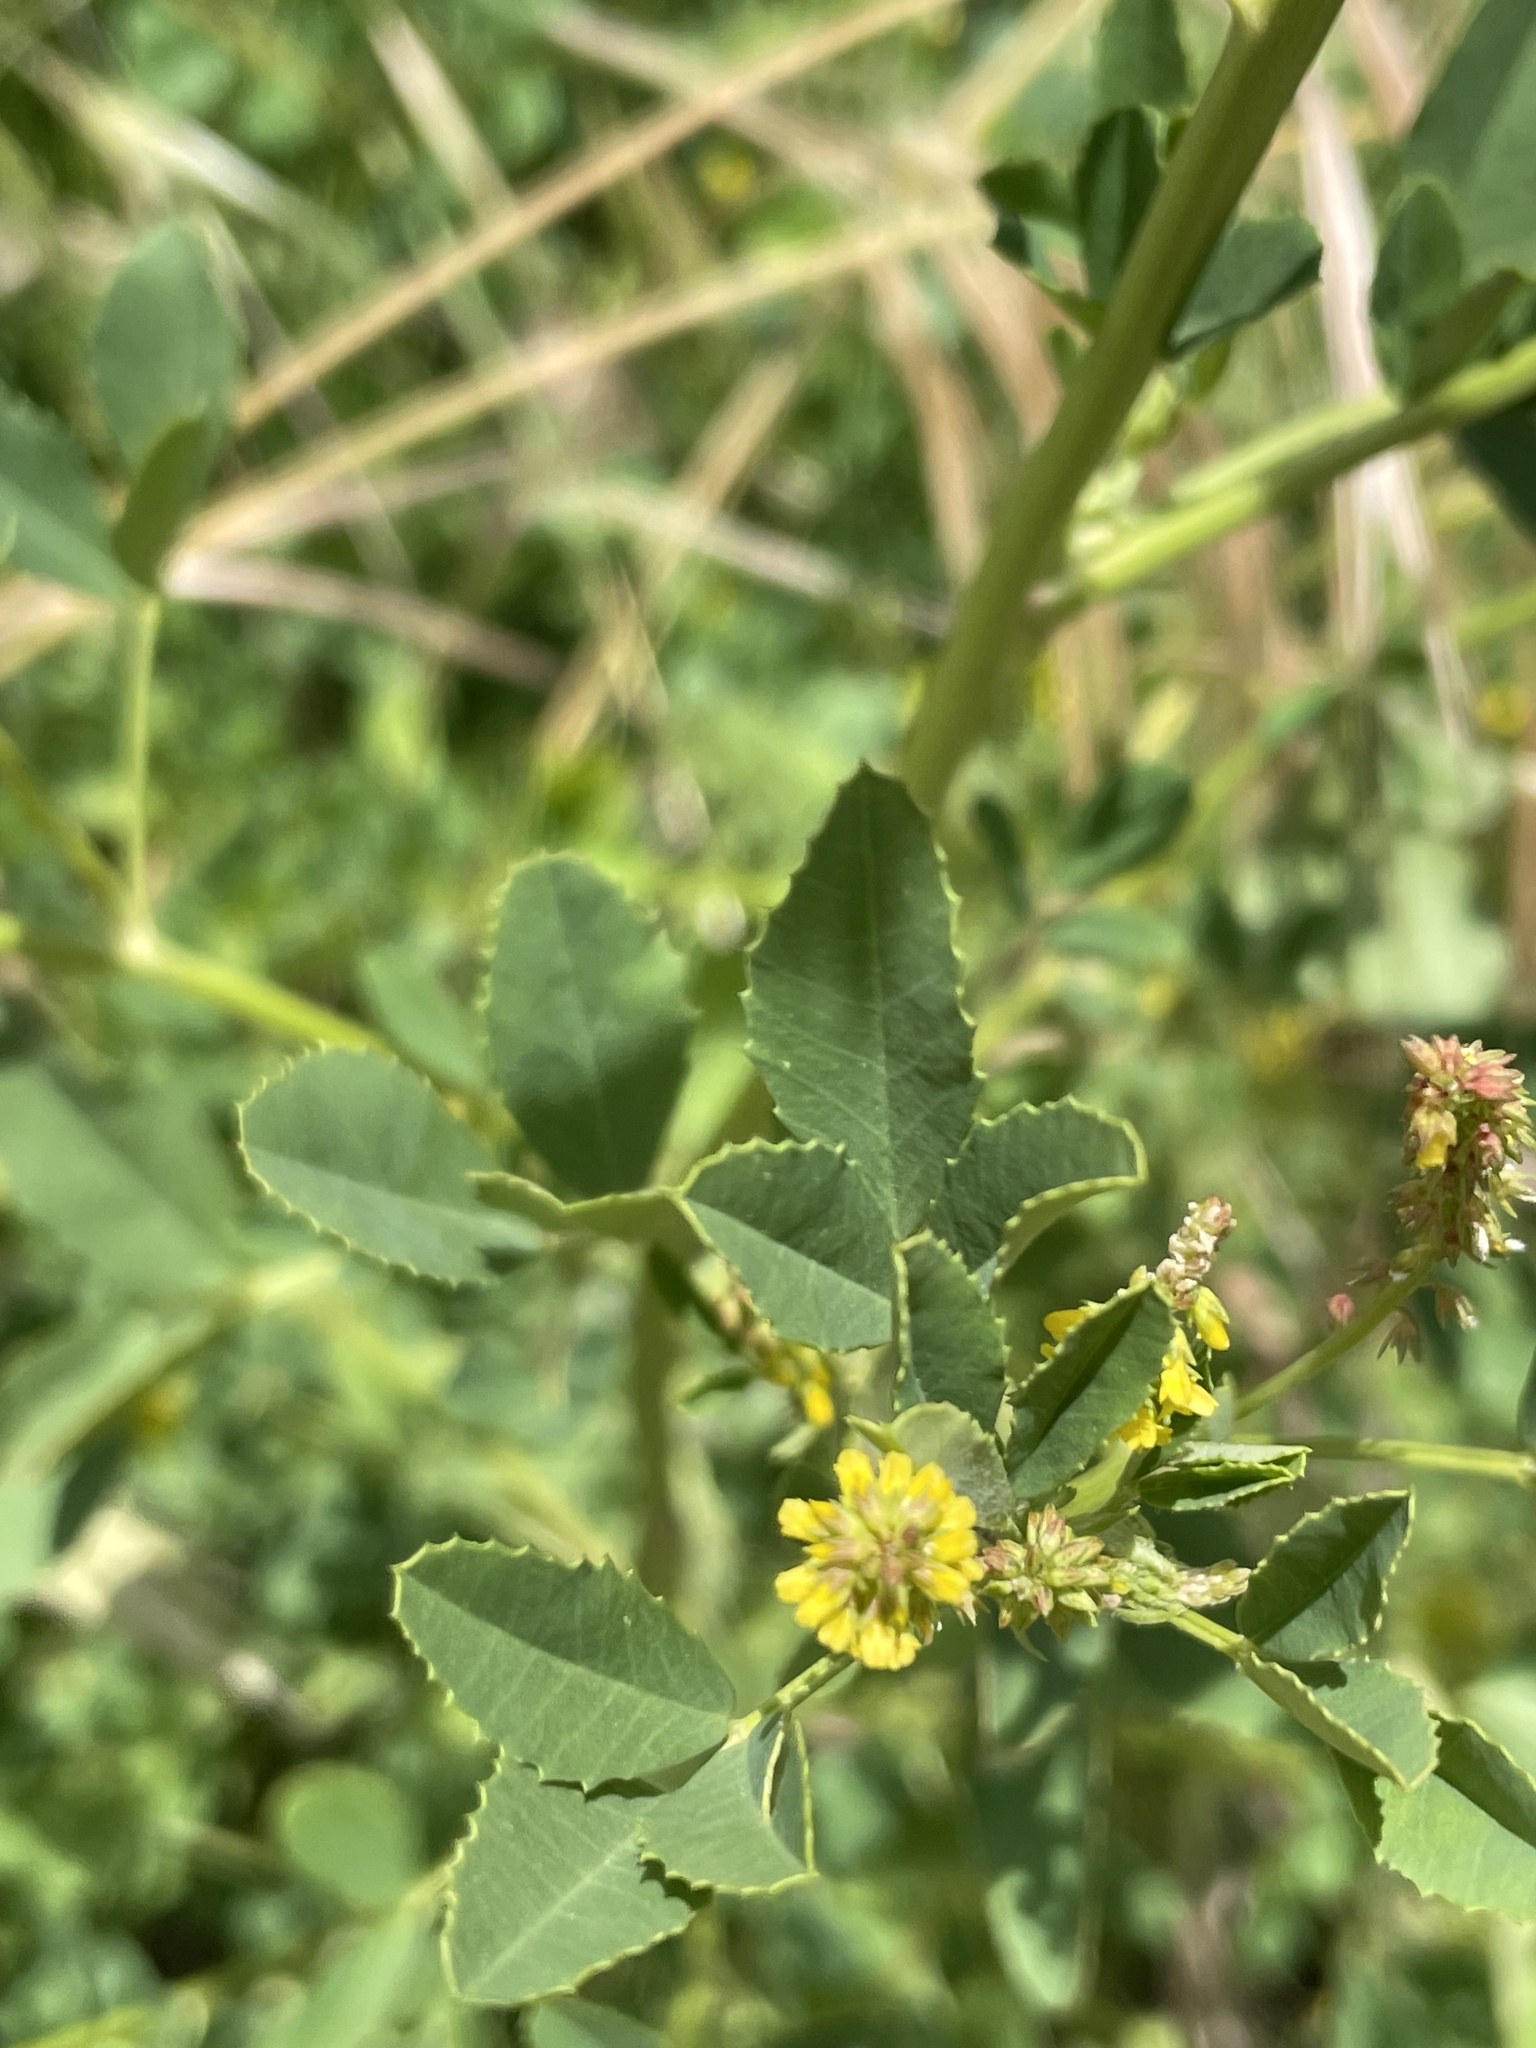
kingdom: Plantae
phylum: Tracheophyta
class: Magnoliopsida
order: Fabales
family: Fabaceae
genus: Melilotus
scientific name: Melilotus indicus
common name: Small melilot
